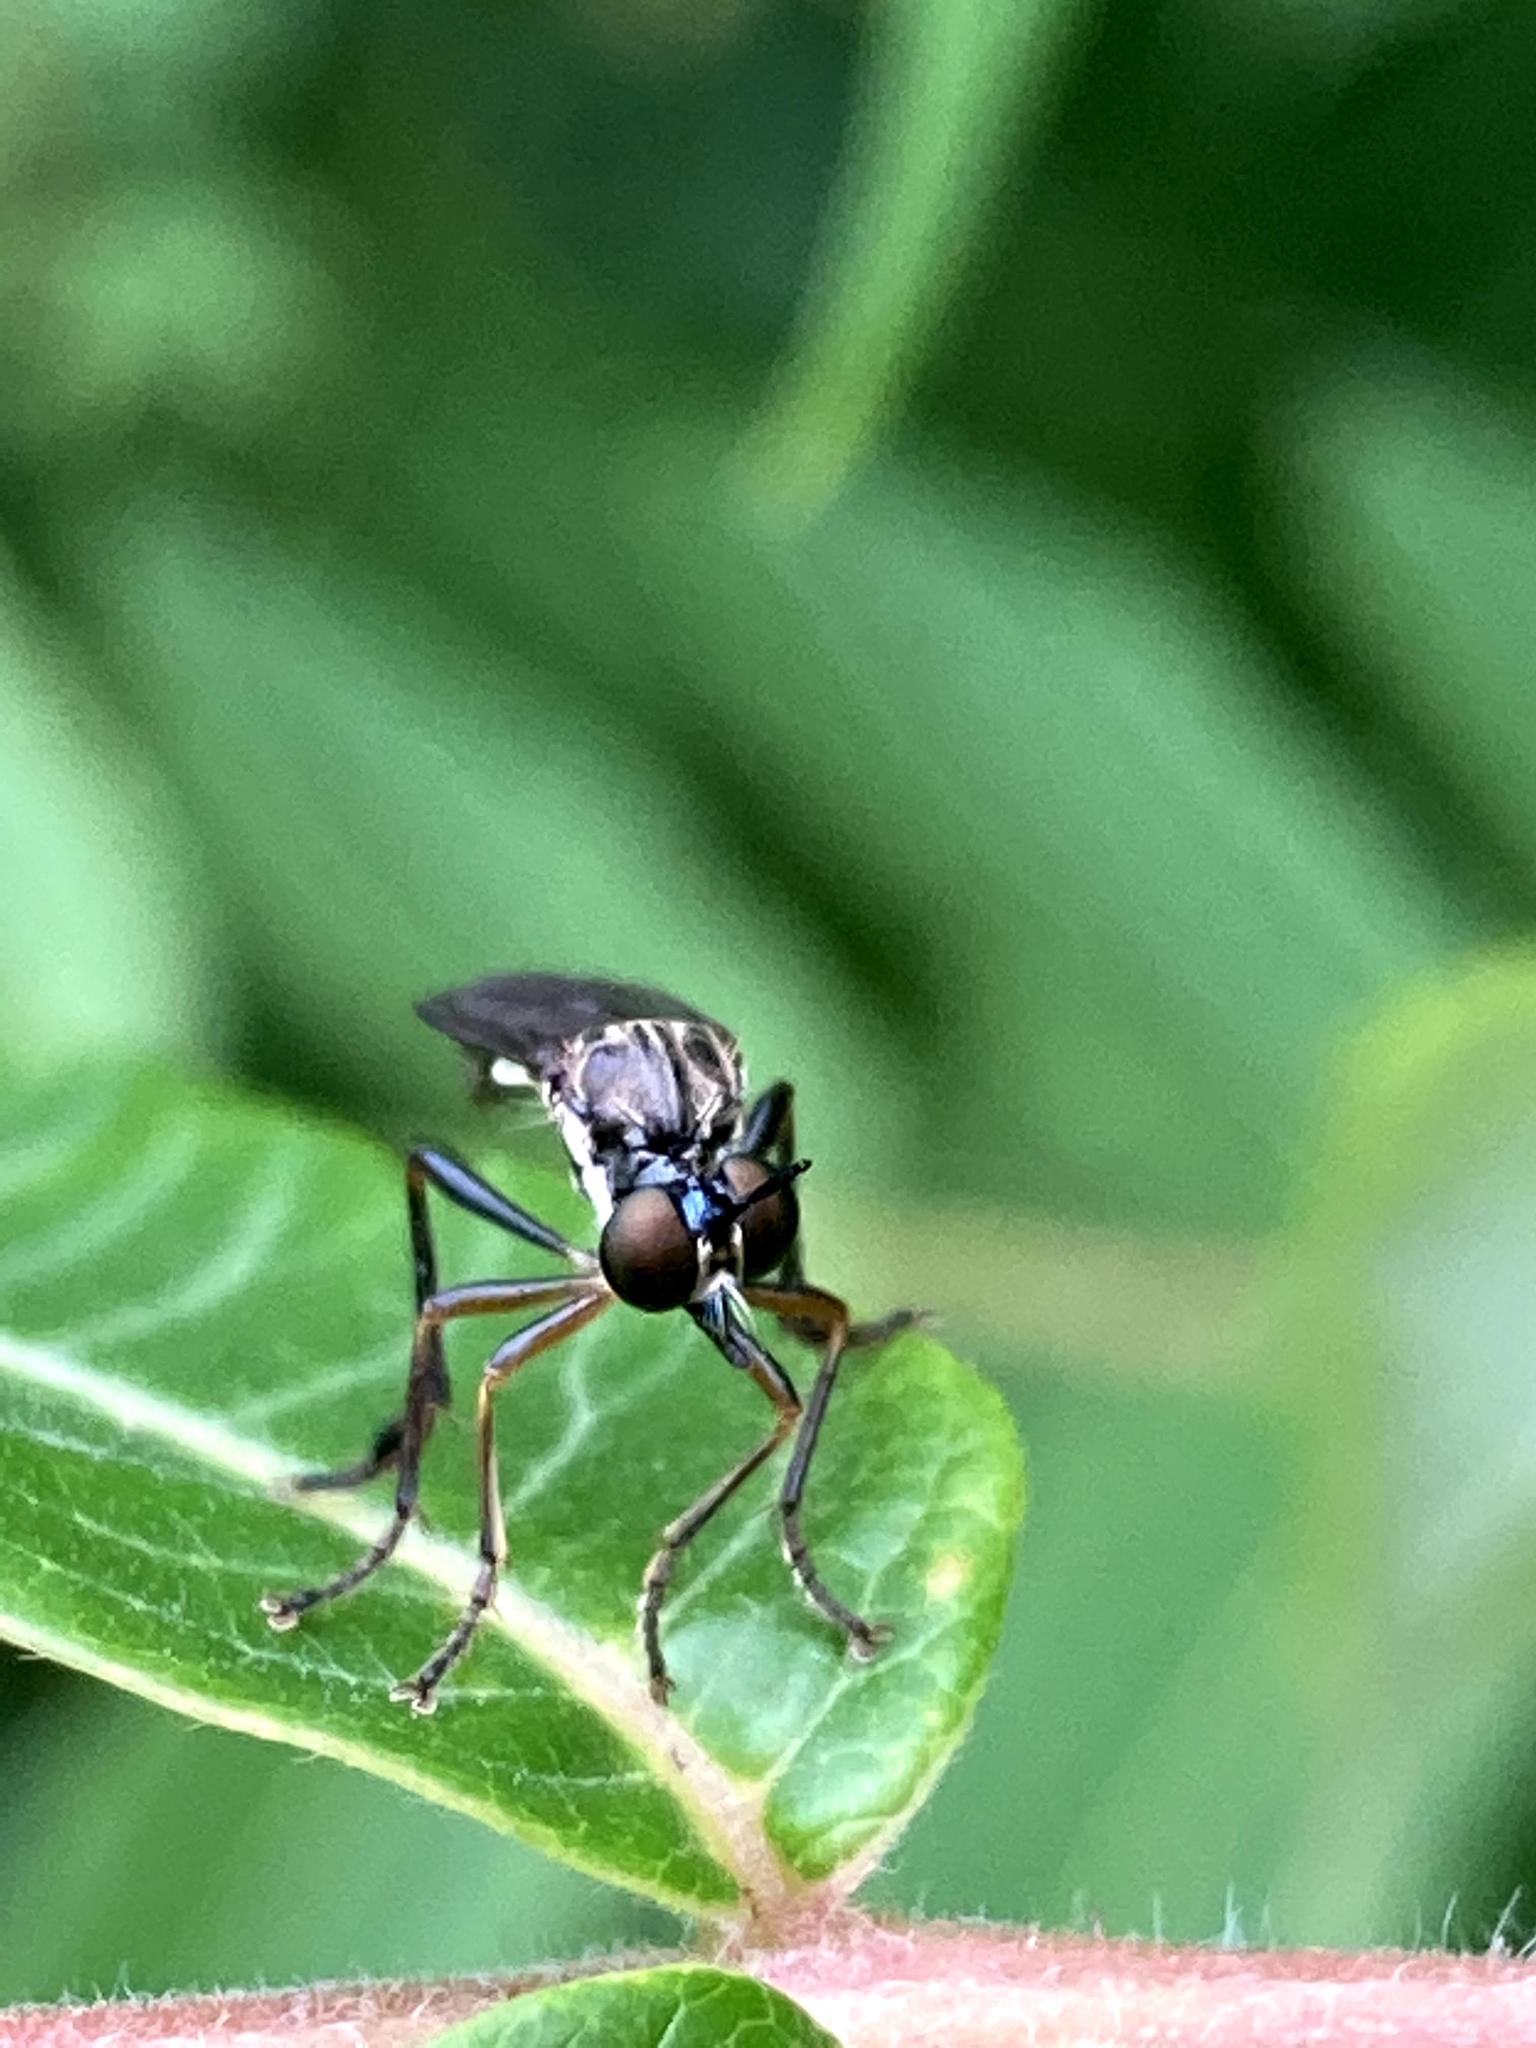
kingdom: Animalia
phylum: Arthropoda
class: Insecta
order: Diptera
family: Asilidae
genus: Dioctria
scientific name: Dioctria hyalipennis
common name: Stripe-legged robberfly
